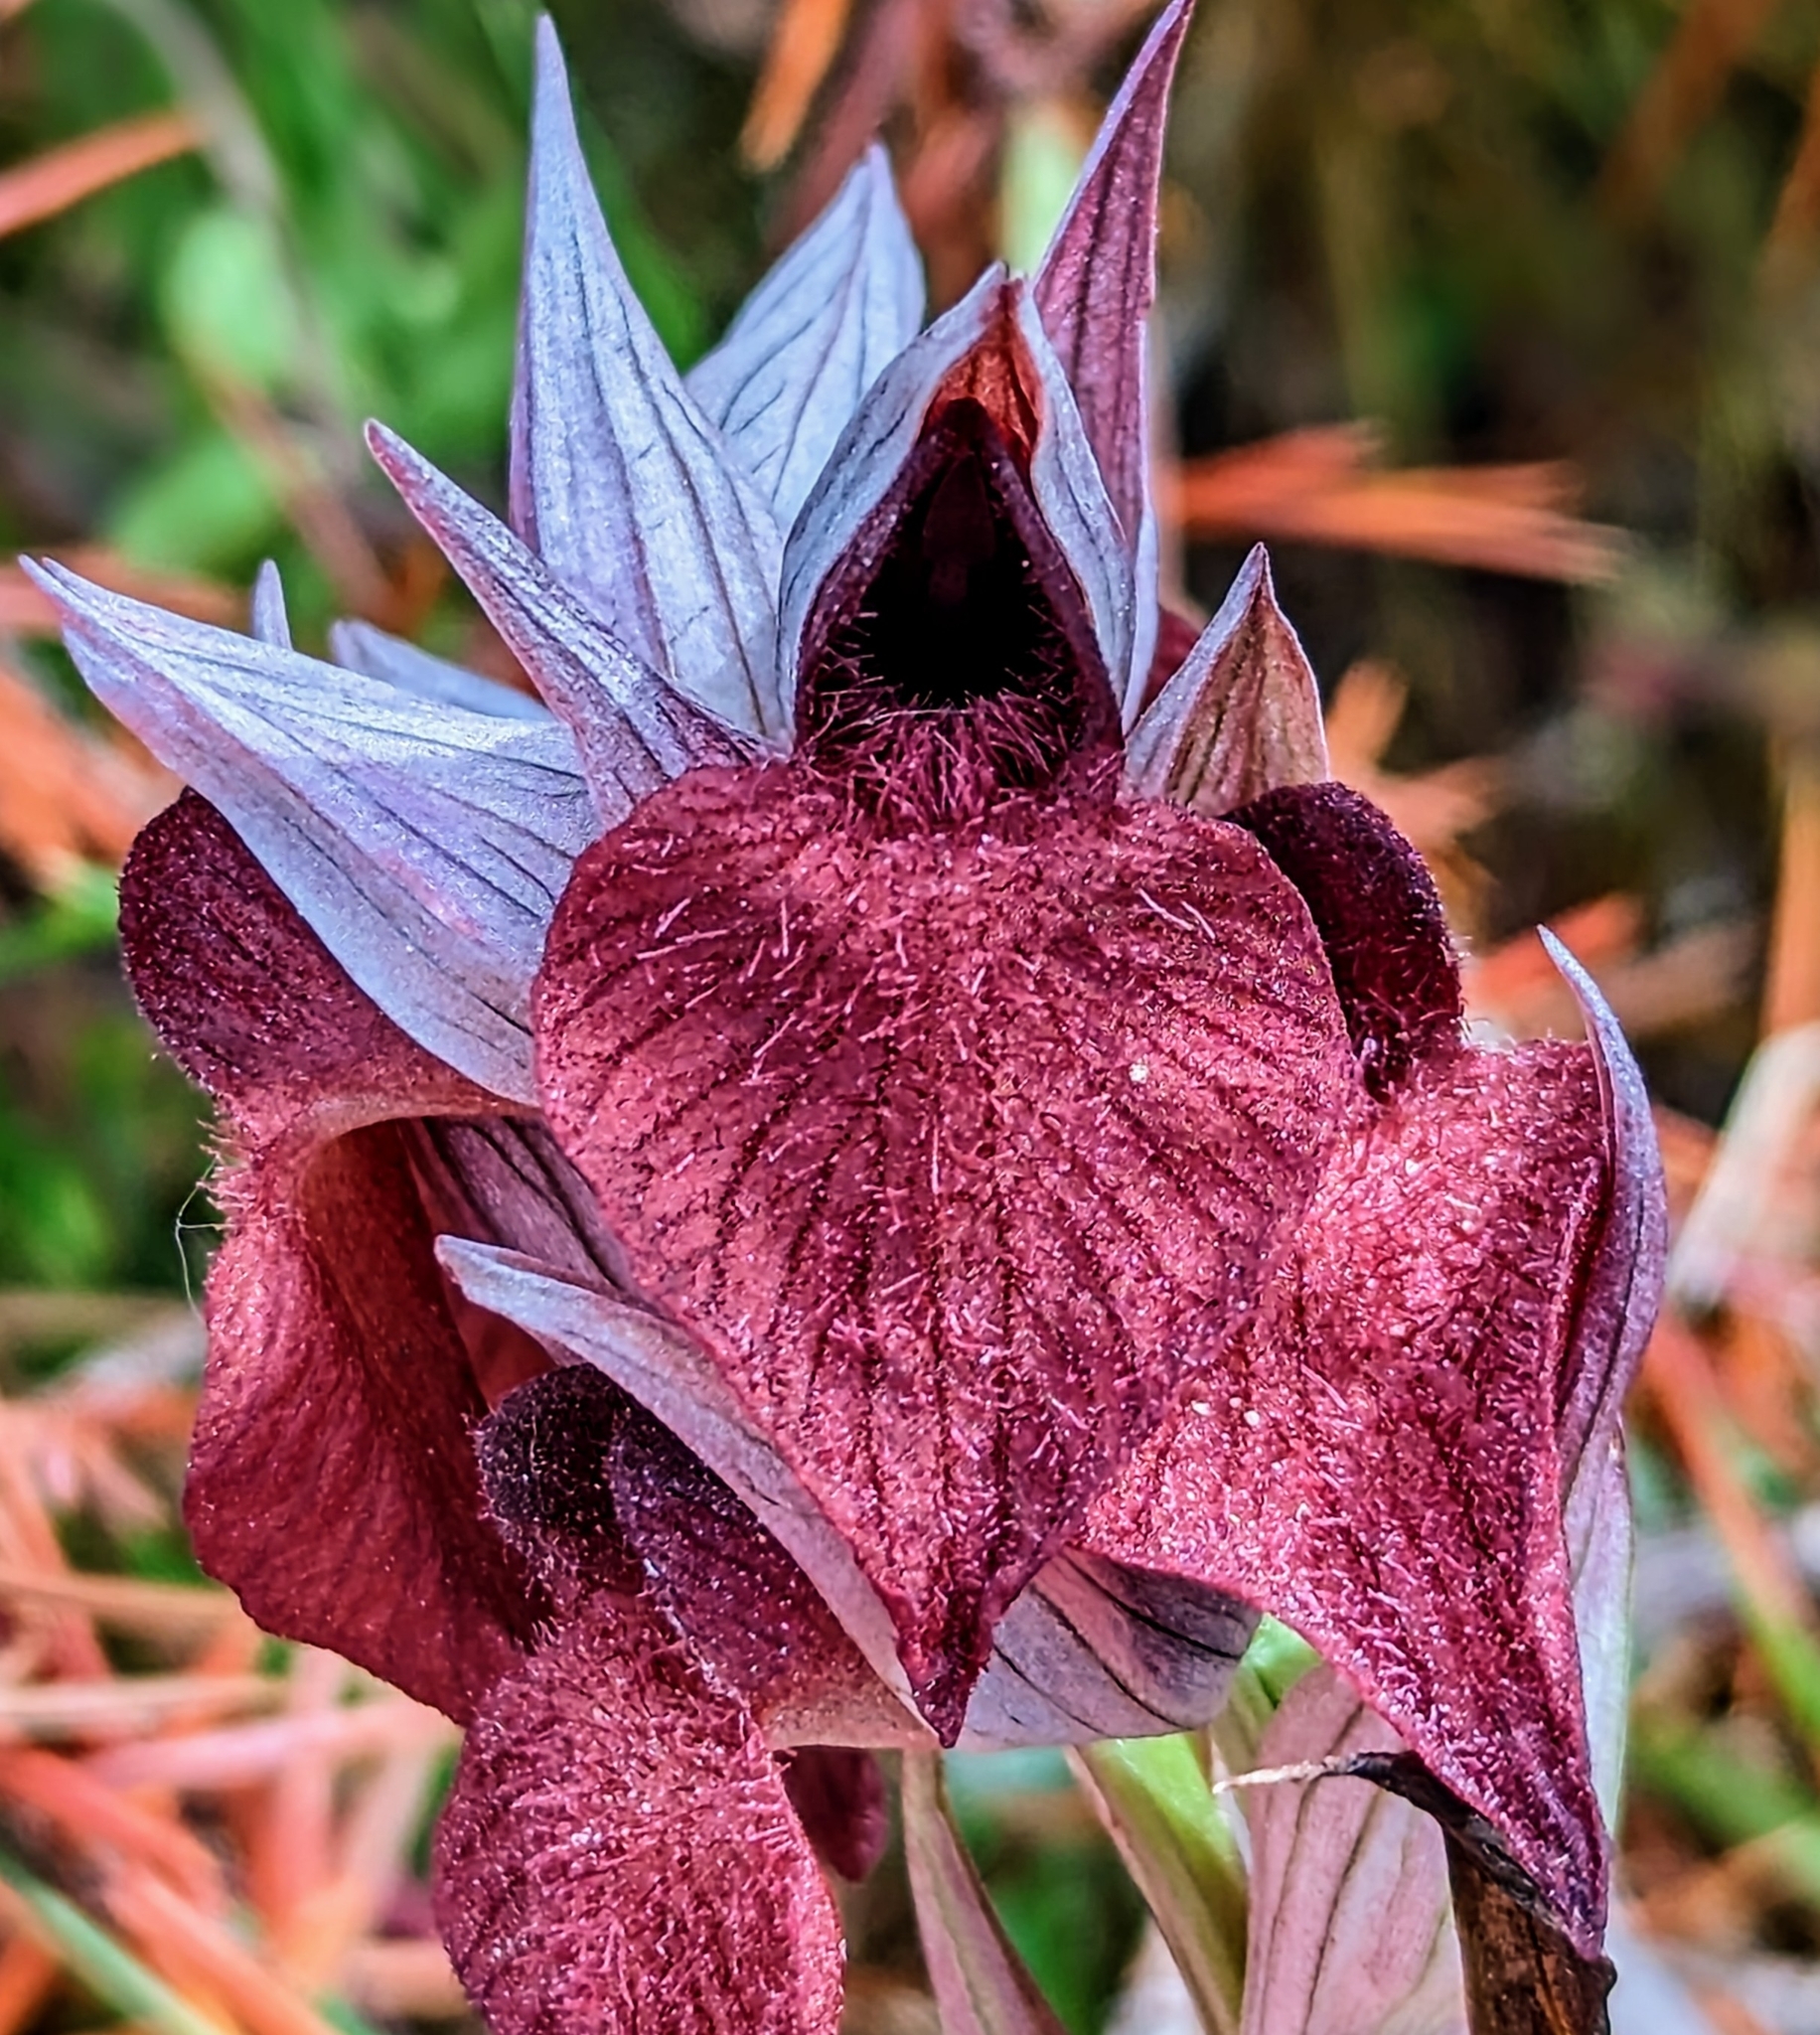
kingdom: Plantae
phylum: Tracheophyta
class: Liliopsida
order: Asparagales
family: Orchidaceae
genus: Serapias
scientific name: Serapias cordigera
